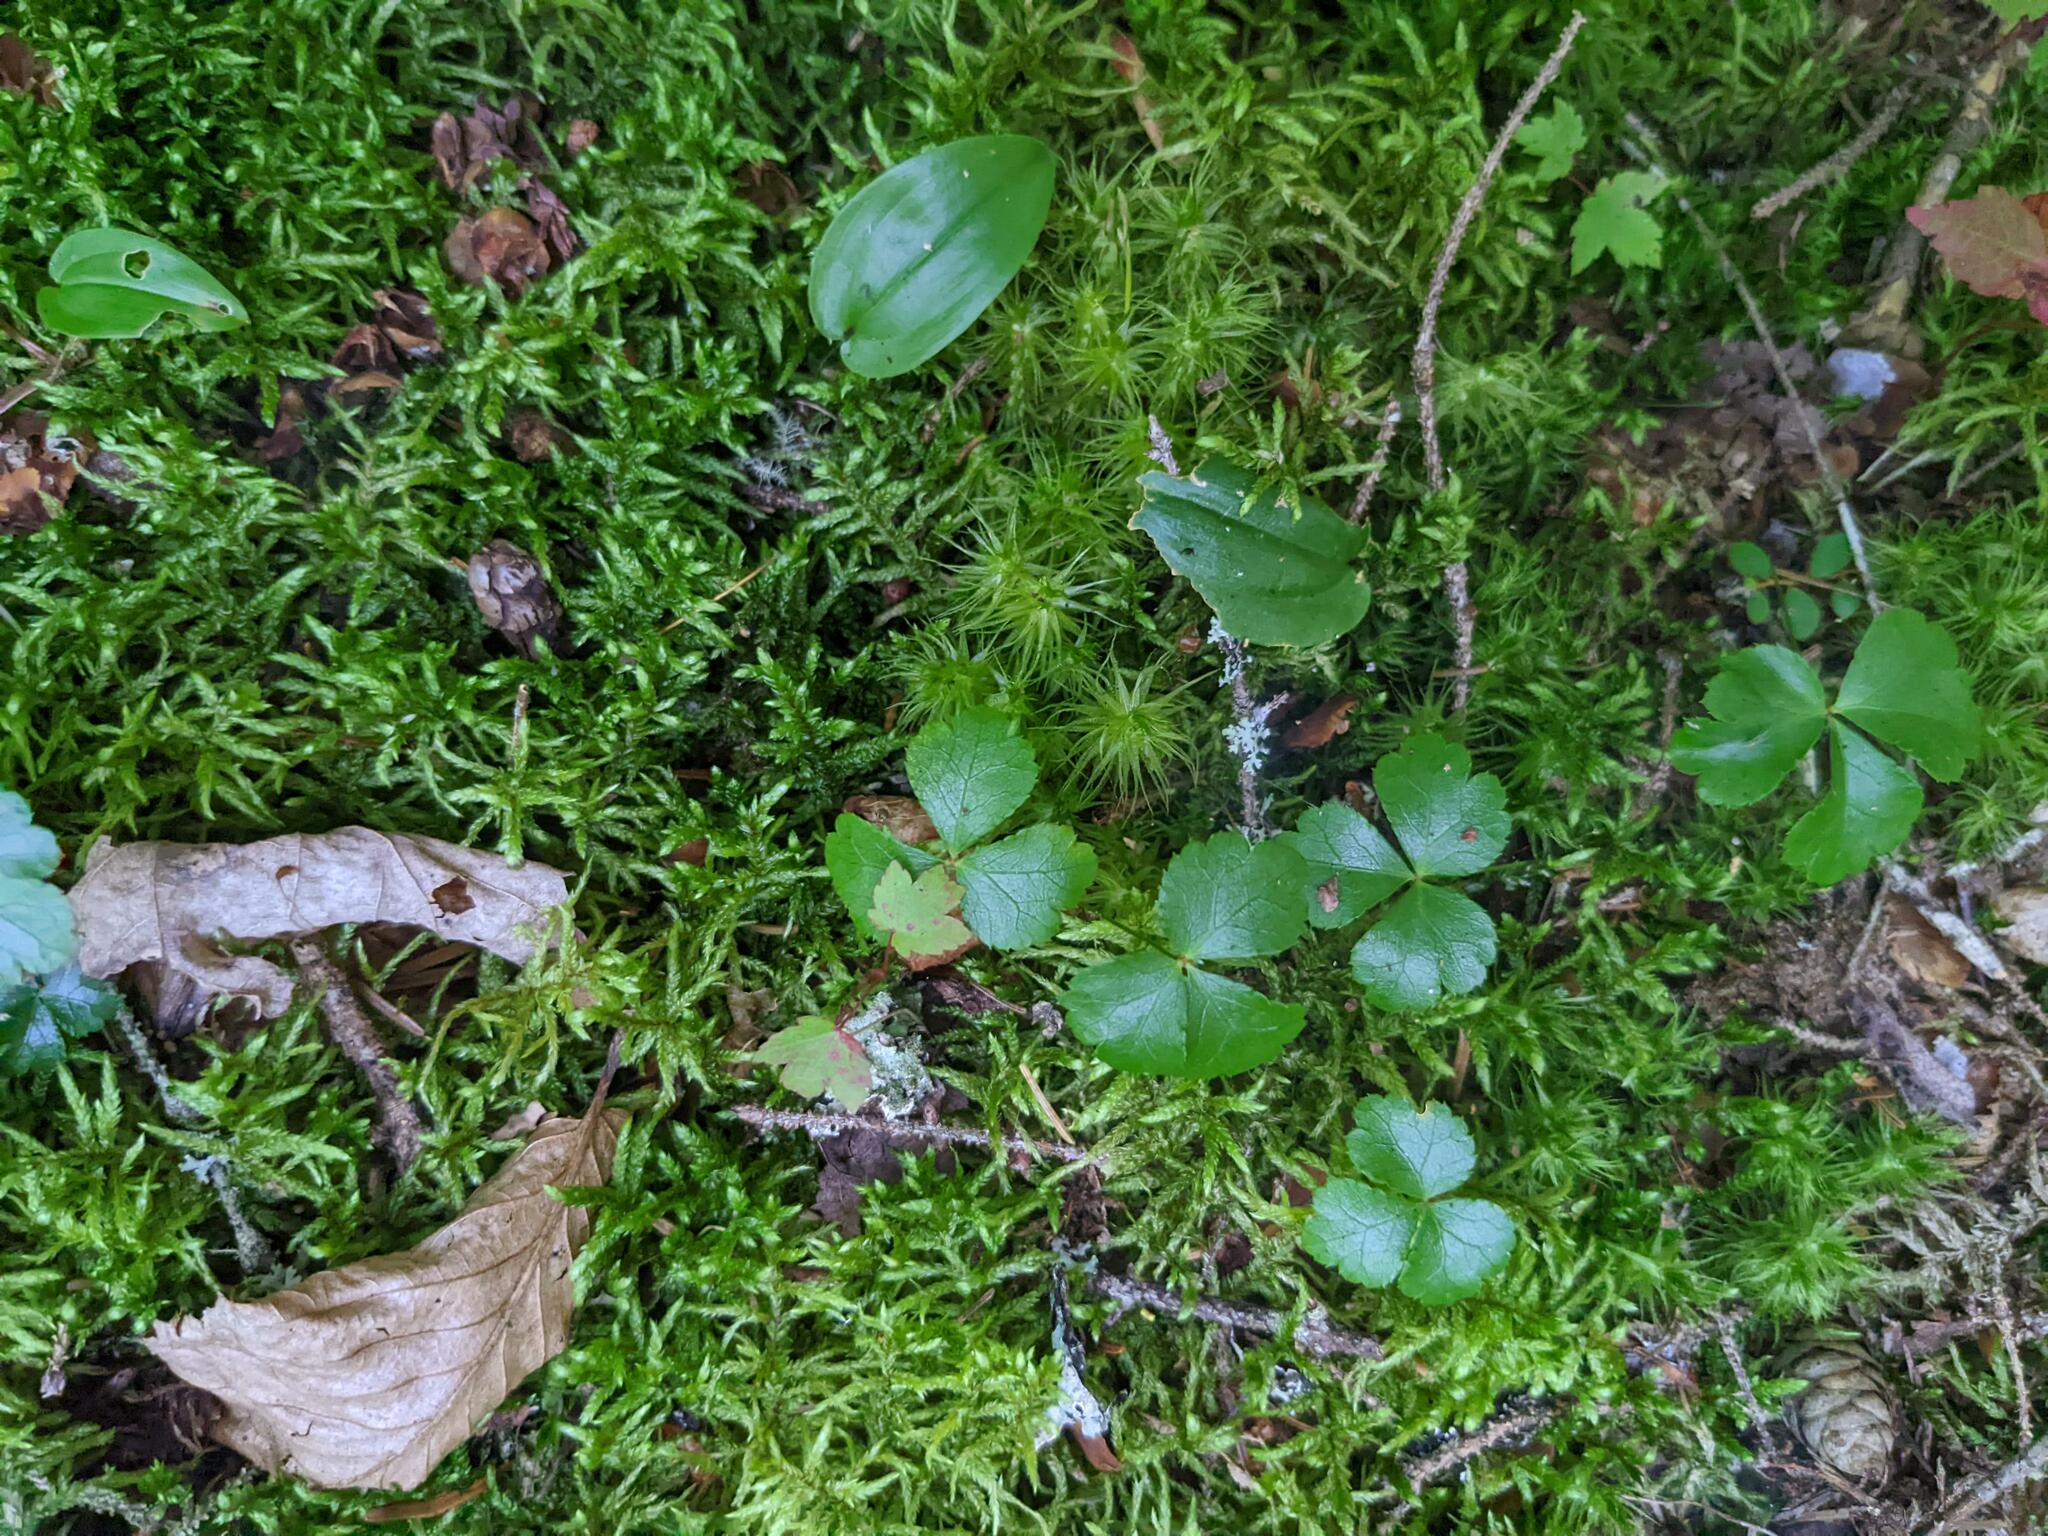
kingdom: Plantae
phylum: Tracheophyta
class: Magnoliopsida
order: Ranunculales
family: Ranunculaceae
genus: Coptis
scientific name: Coptis trifolia
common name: Canker-root
